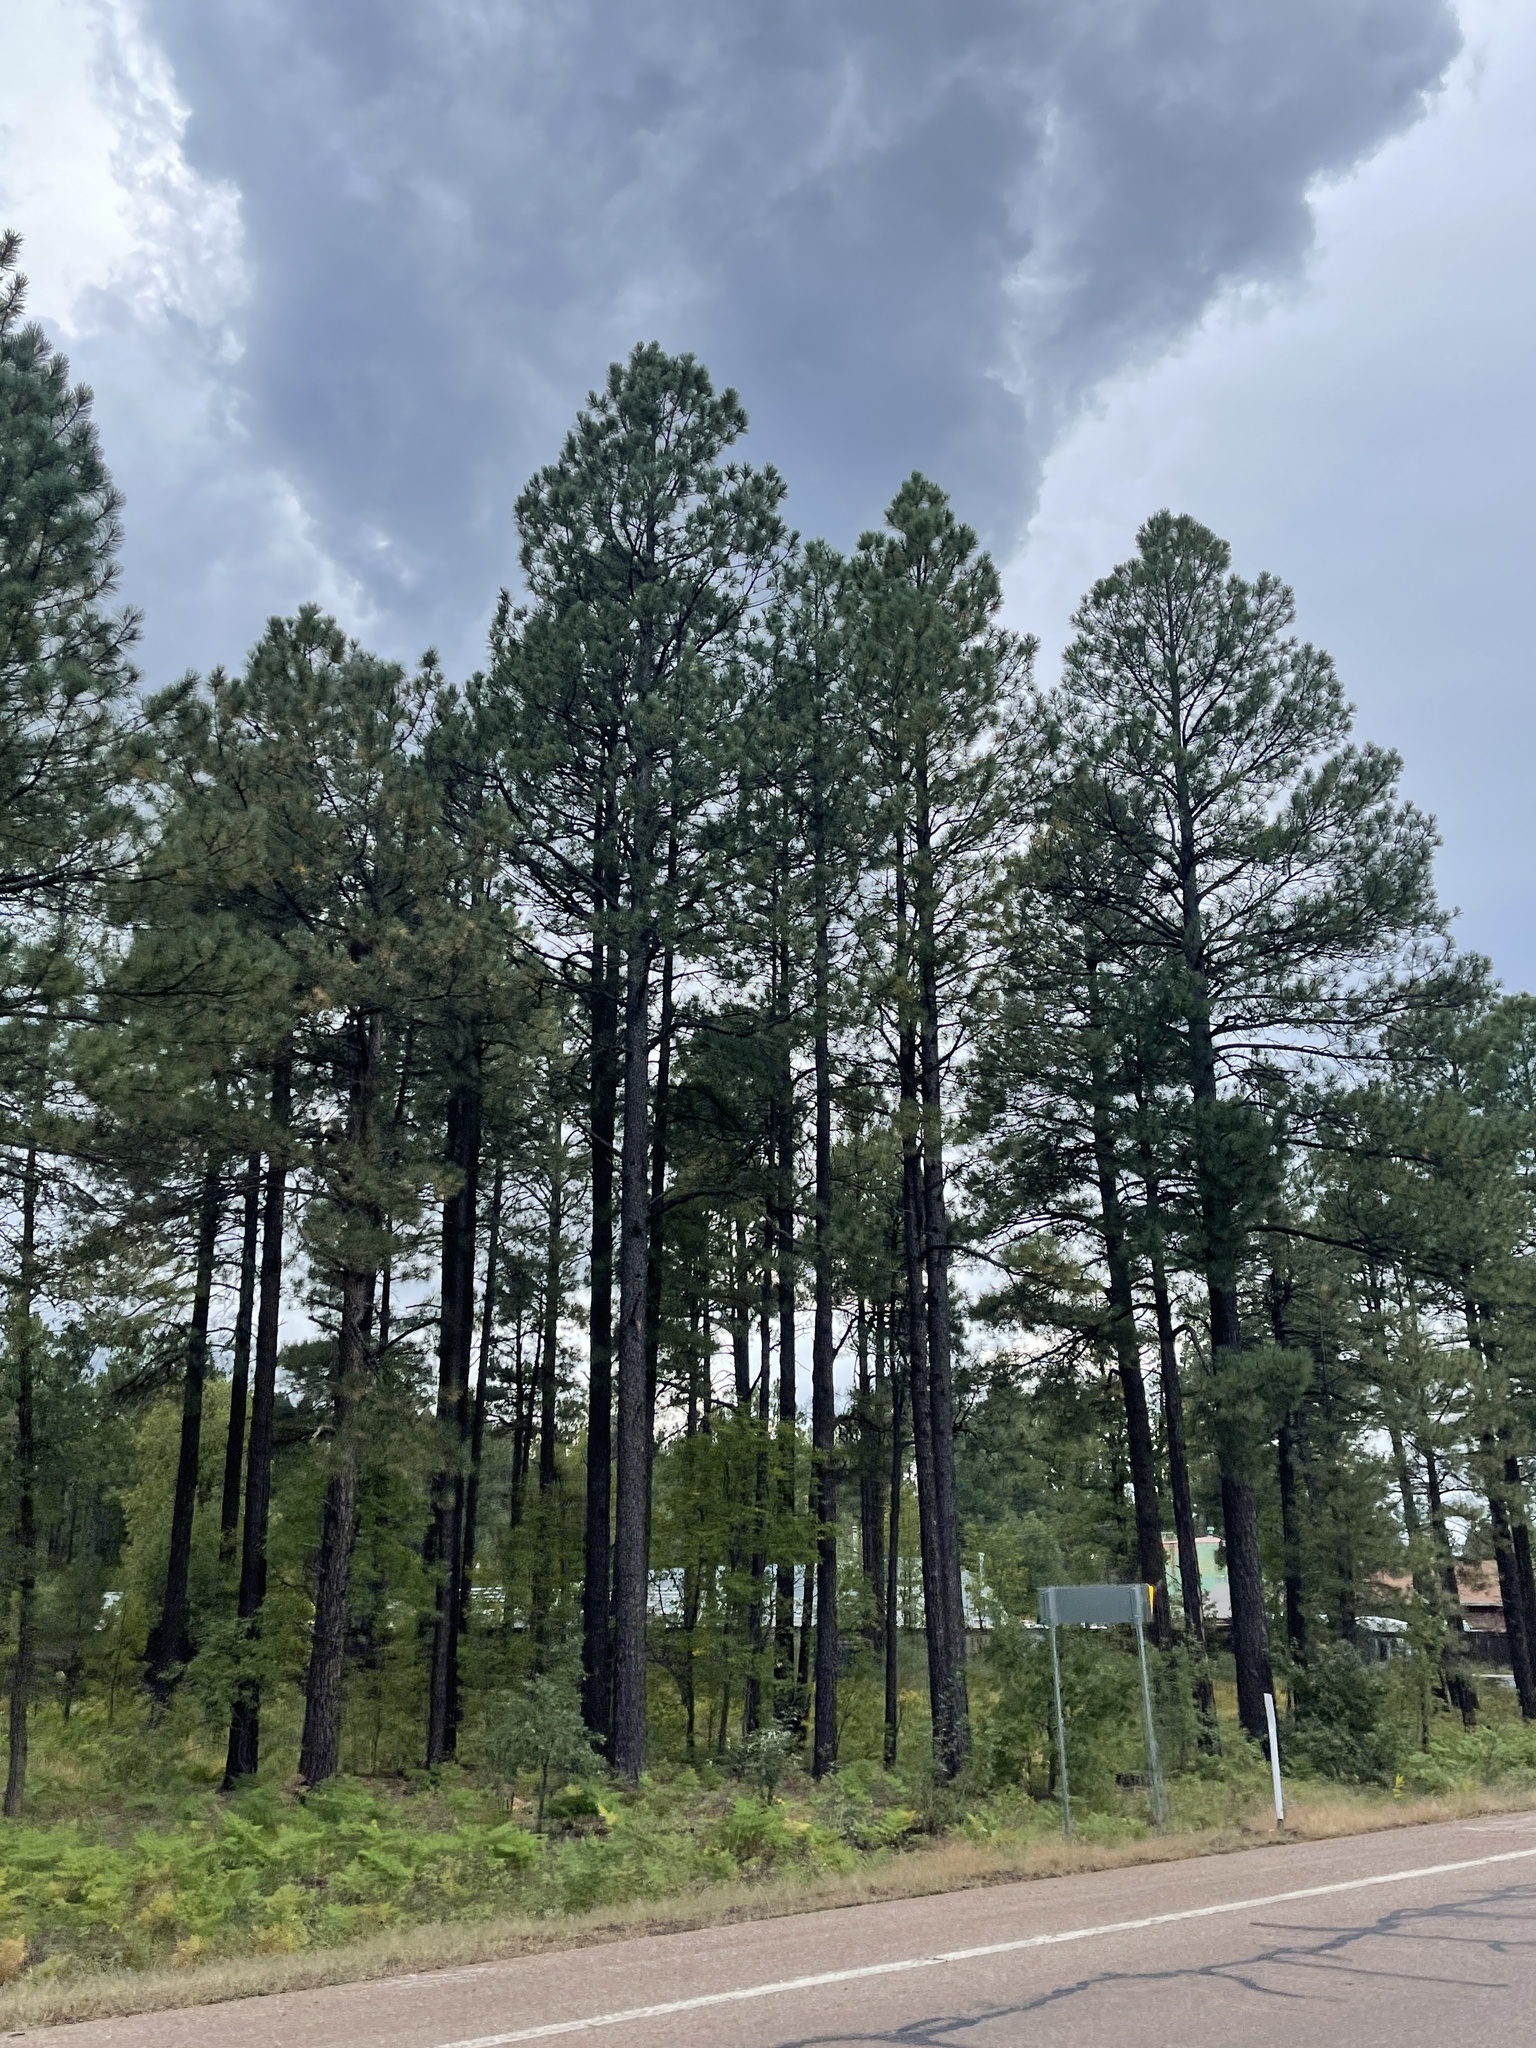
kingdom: Plantae
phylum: Tracheophyta
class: Pinopsida
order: Pinales
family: Pinaceae
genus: Pinus
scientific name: Pinus ponderosa
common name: Western yellow-pine
